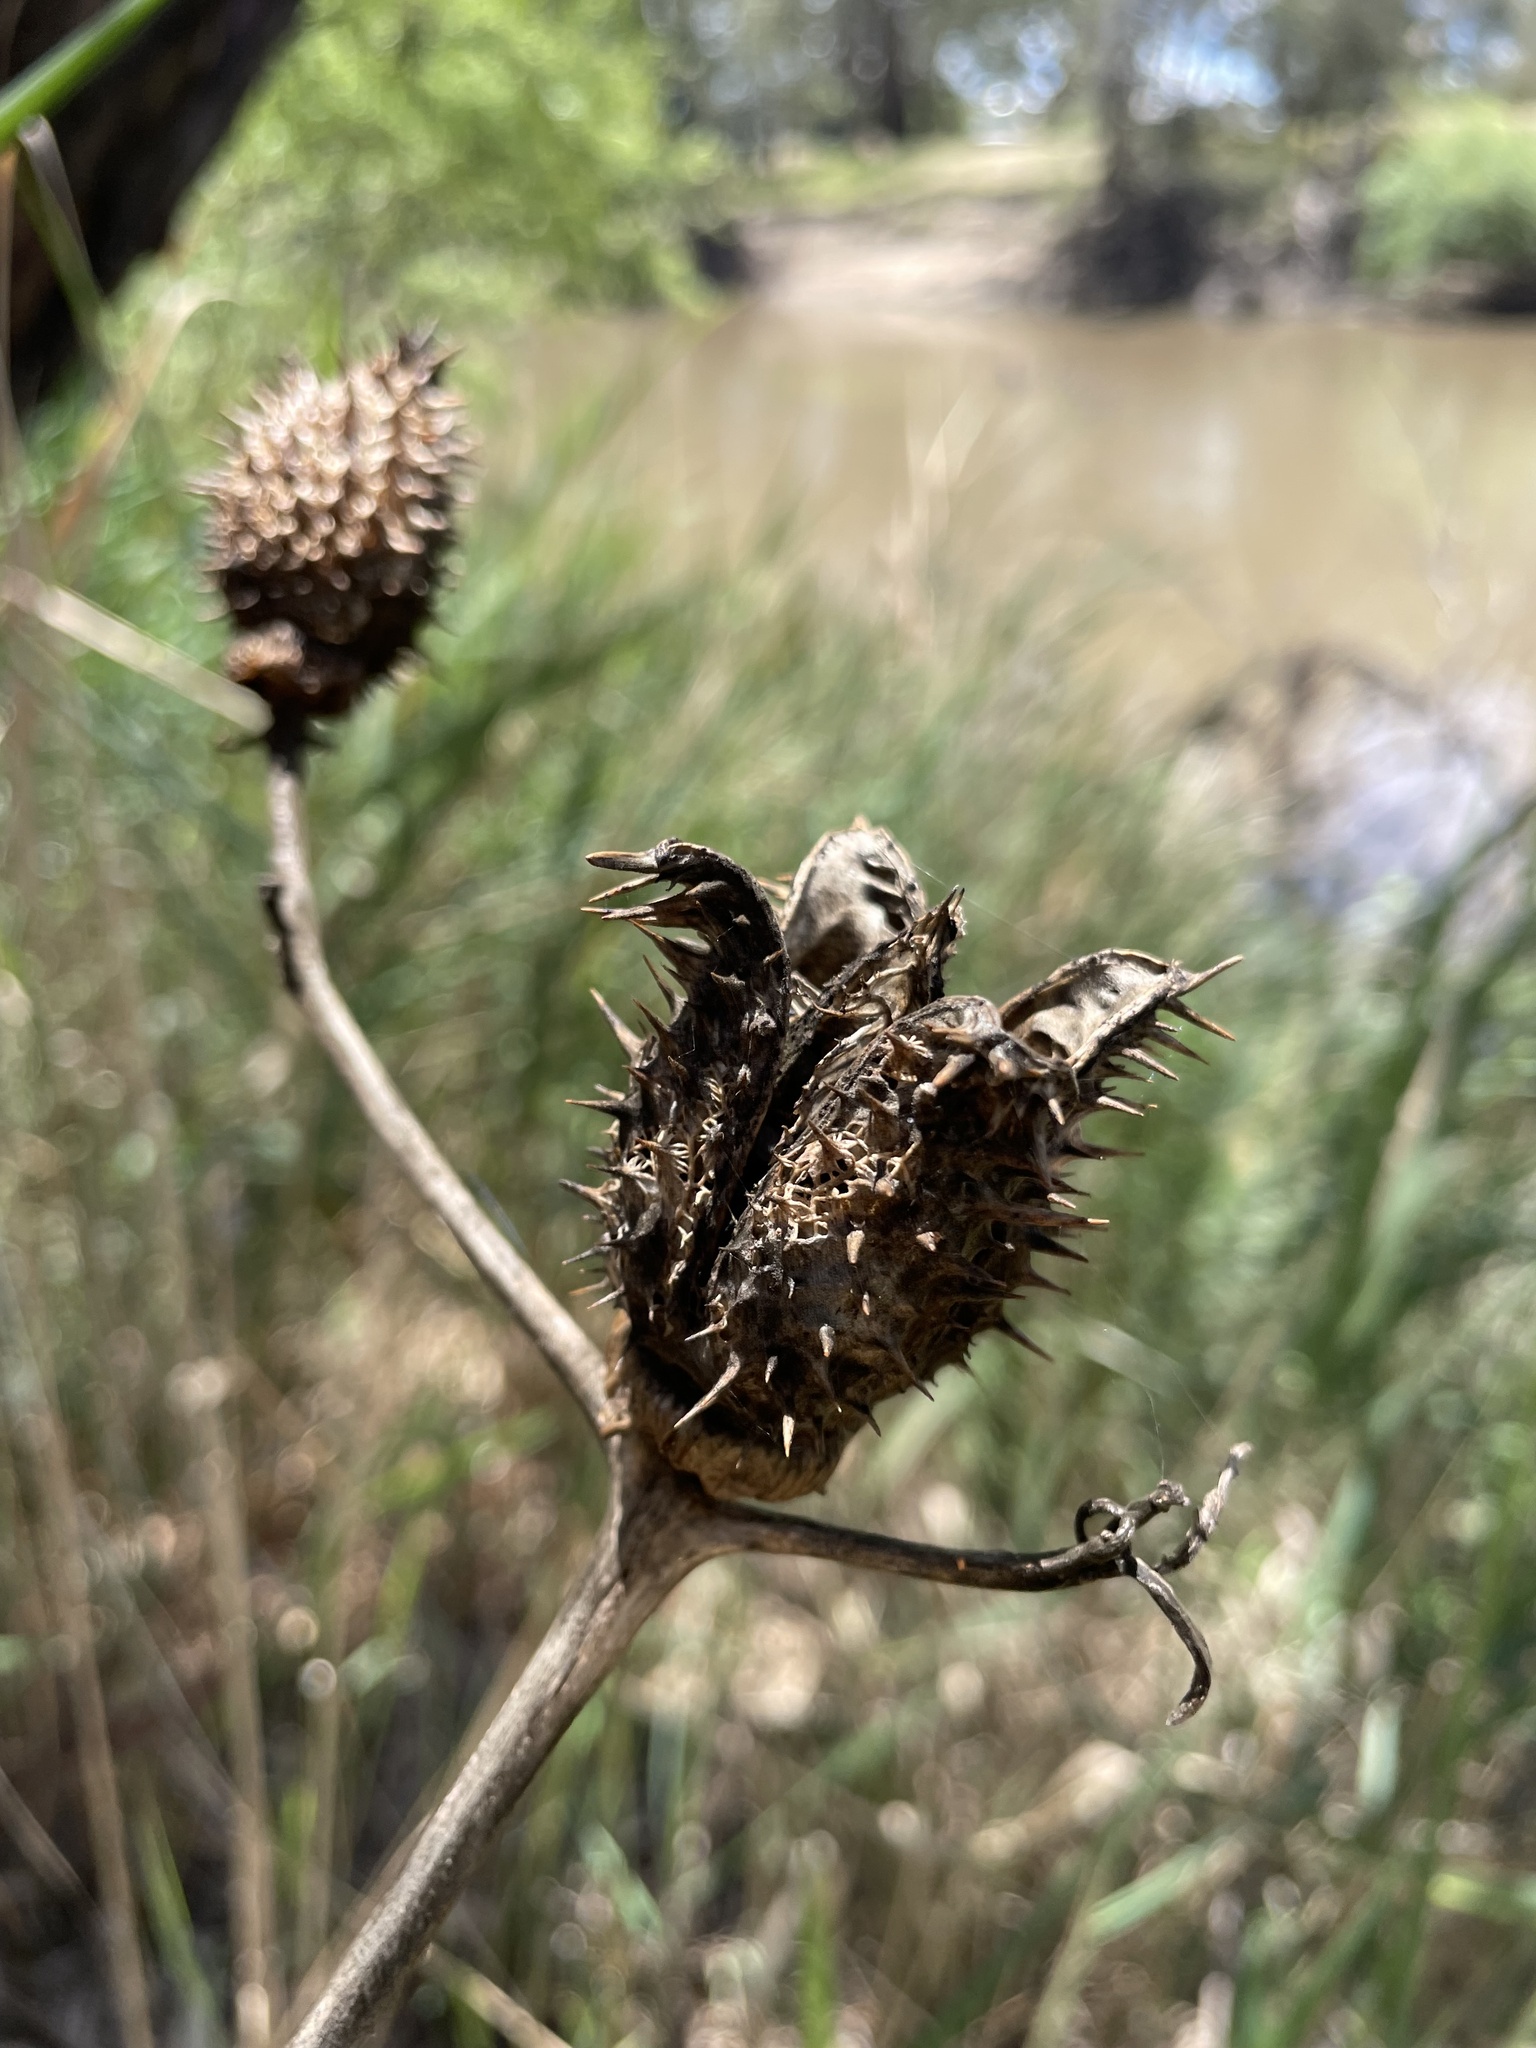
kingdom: Plantae
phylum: Tracheophyta
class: Magnoliopsida
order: Solanales
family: Solanaceae
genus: Datura
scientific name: Datura stramonium
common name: Thorn-apple
